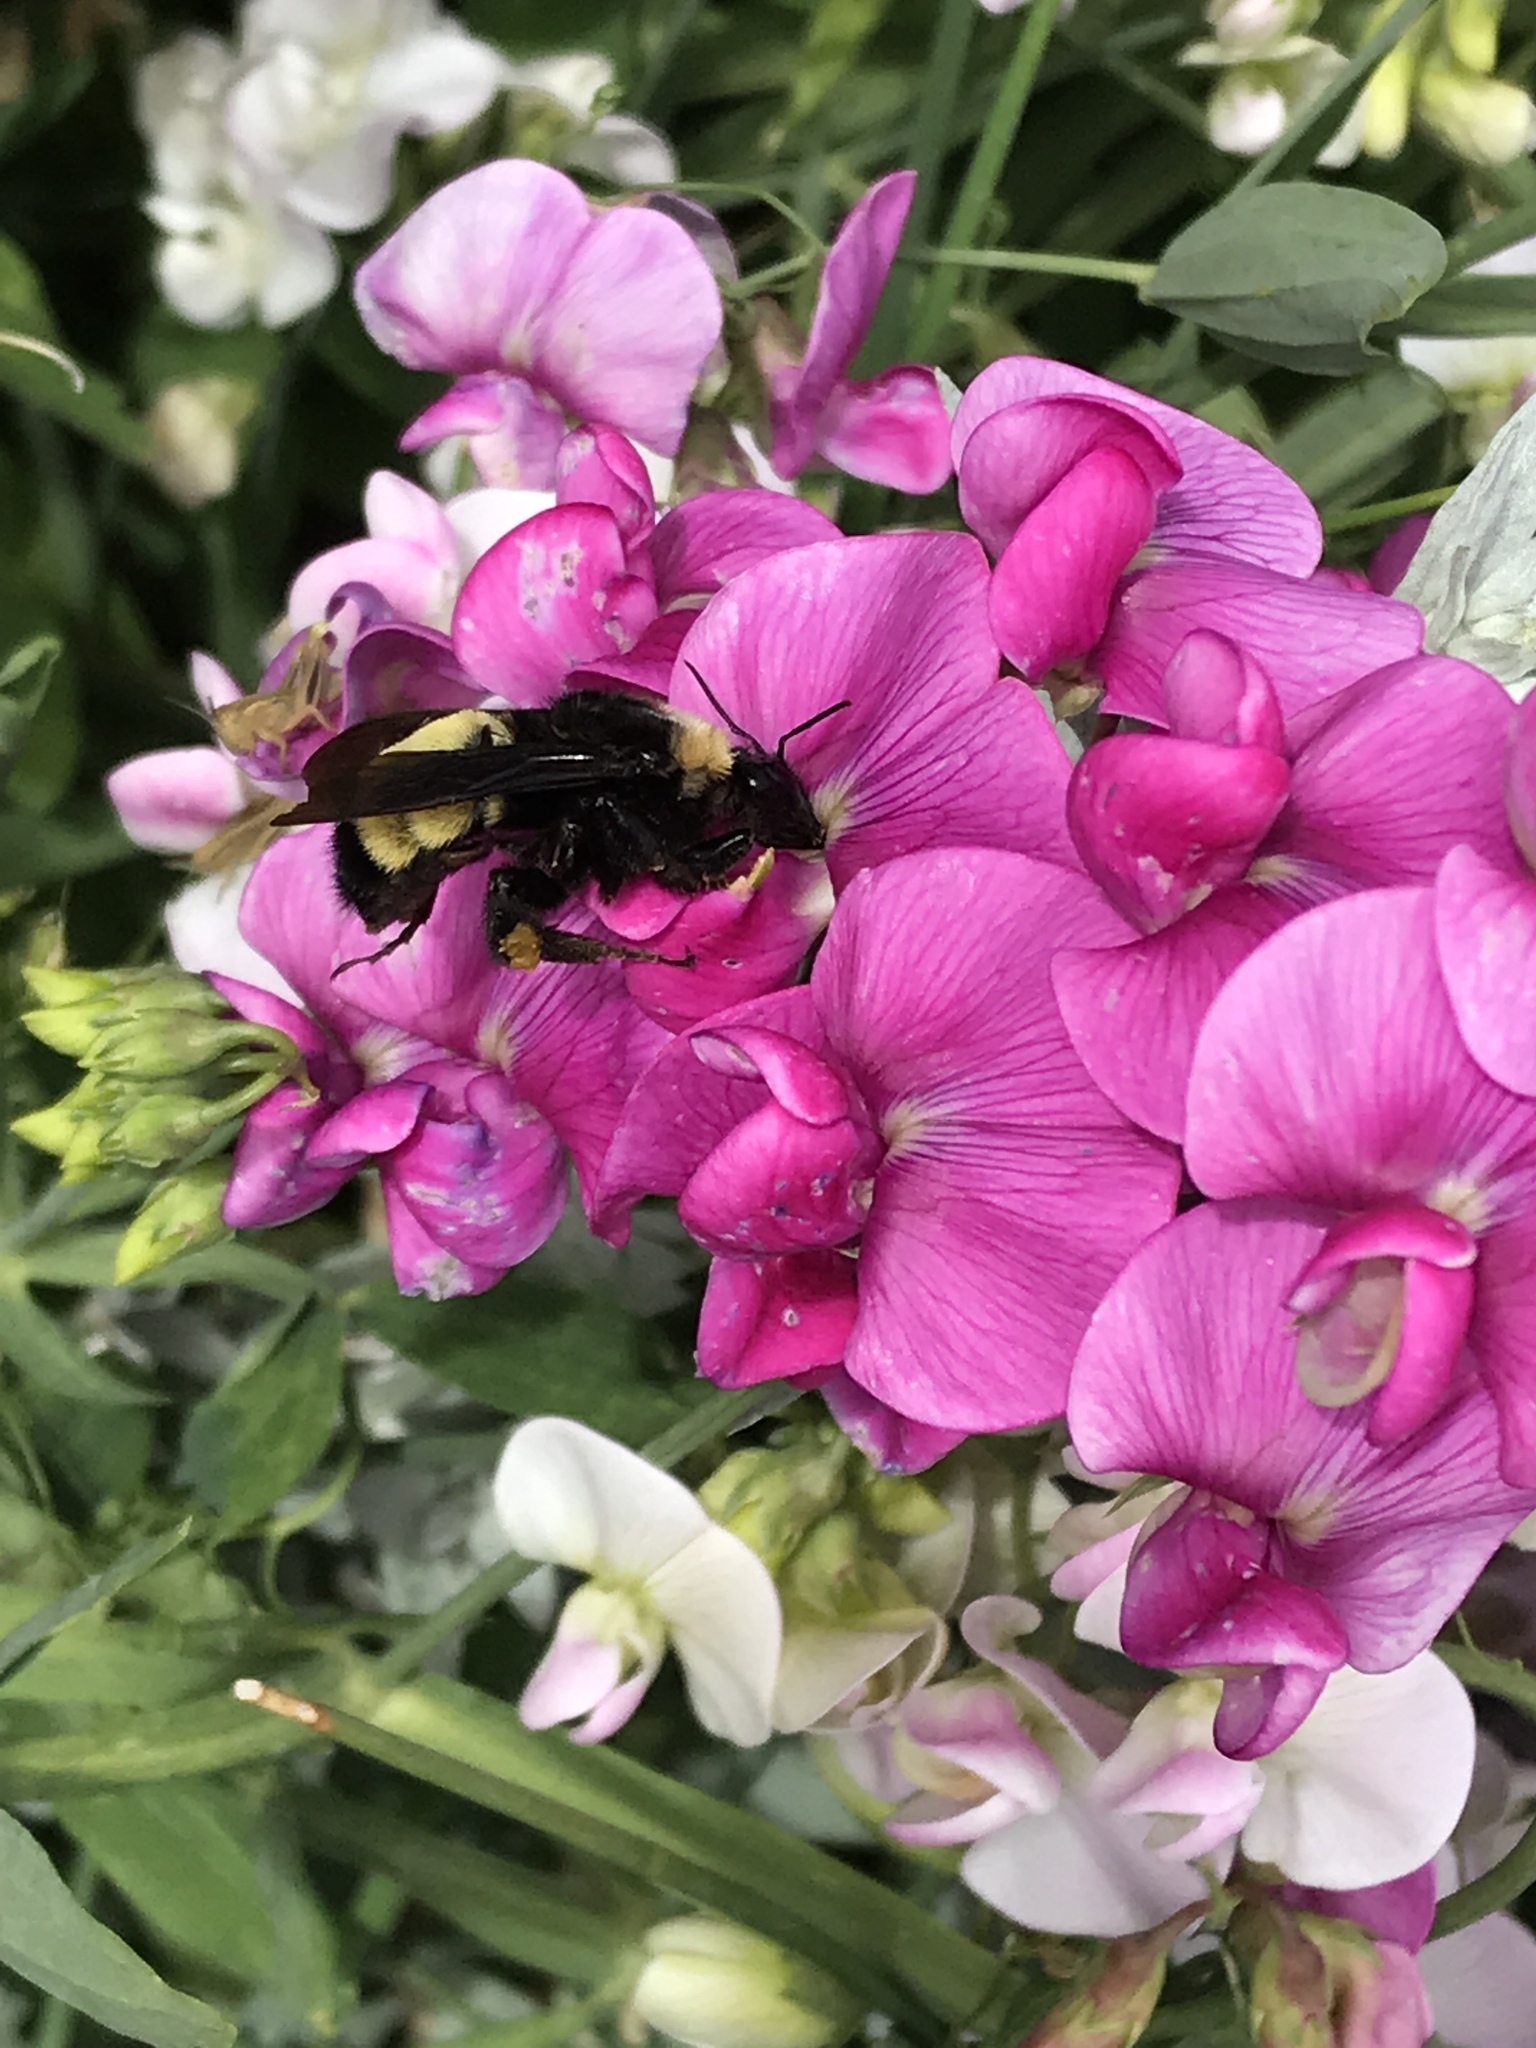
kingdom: Animalia
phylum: Arthropoda
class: Insecta
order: Hymenoptera
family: Apidae
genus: Bombus
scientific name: Bombus pensylvanicus
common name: Bumble bee
